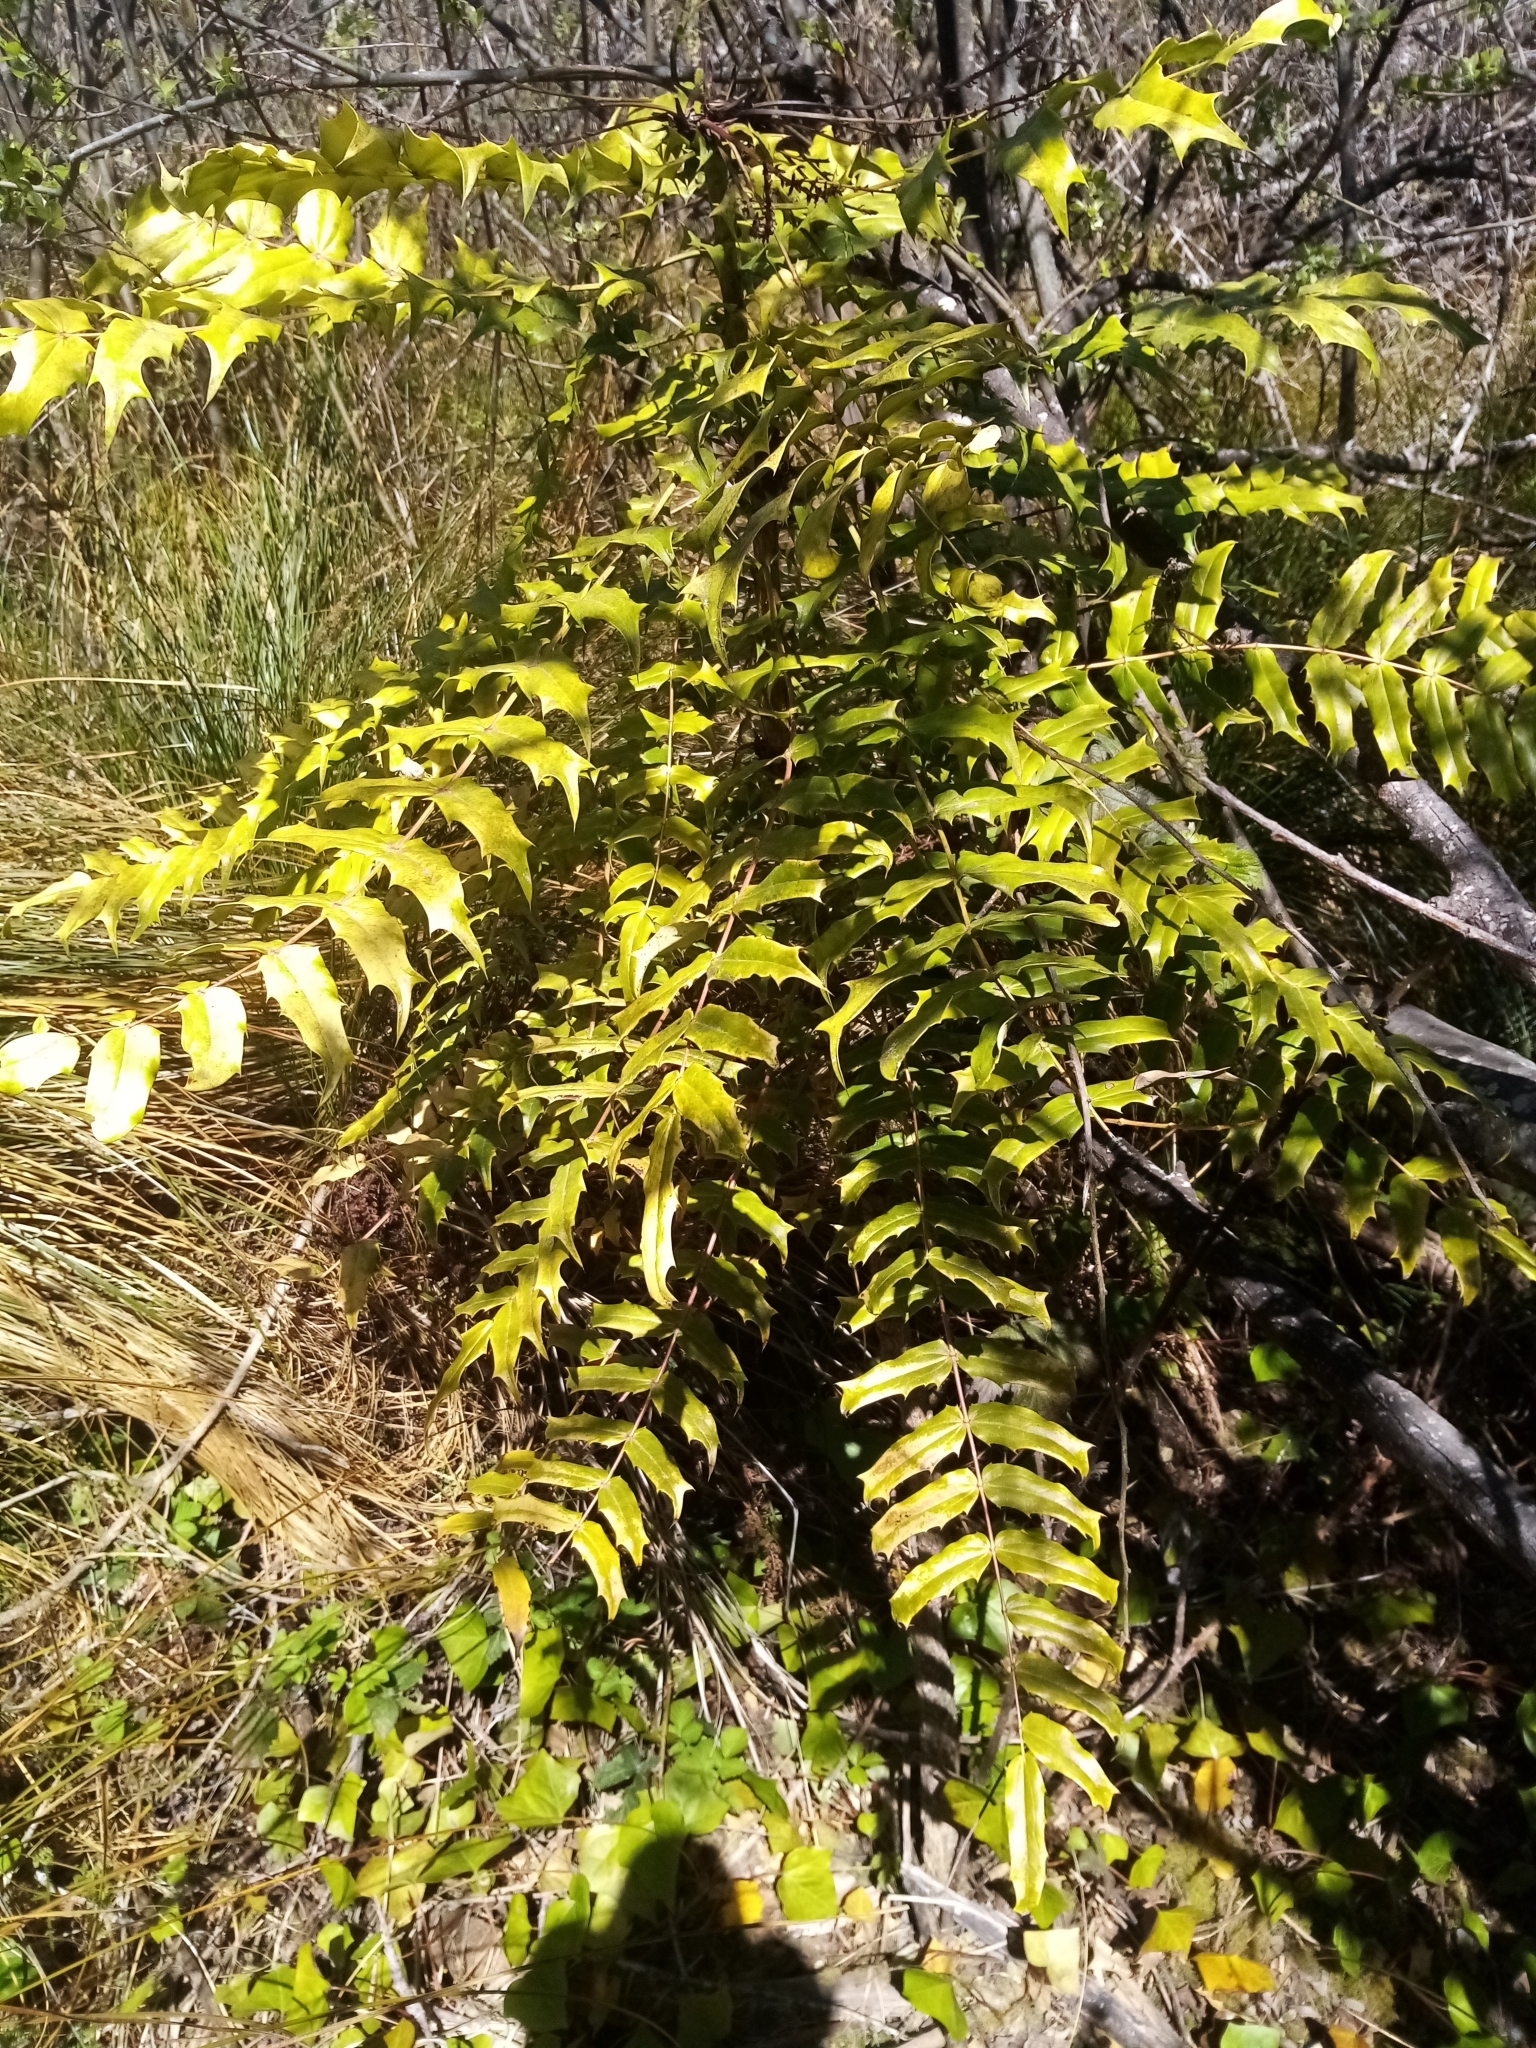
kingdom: Plantae
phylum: Tracheophyta
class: Magnoliopsida
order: Ranunculales
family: Berberidaceae
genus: Mahonia
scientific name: Mahonia oiwakensis
